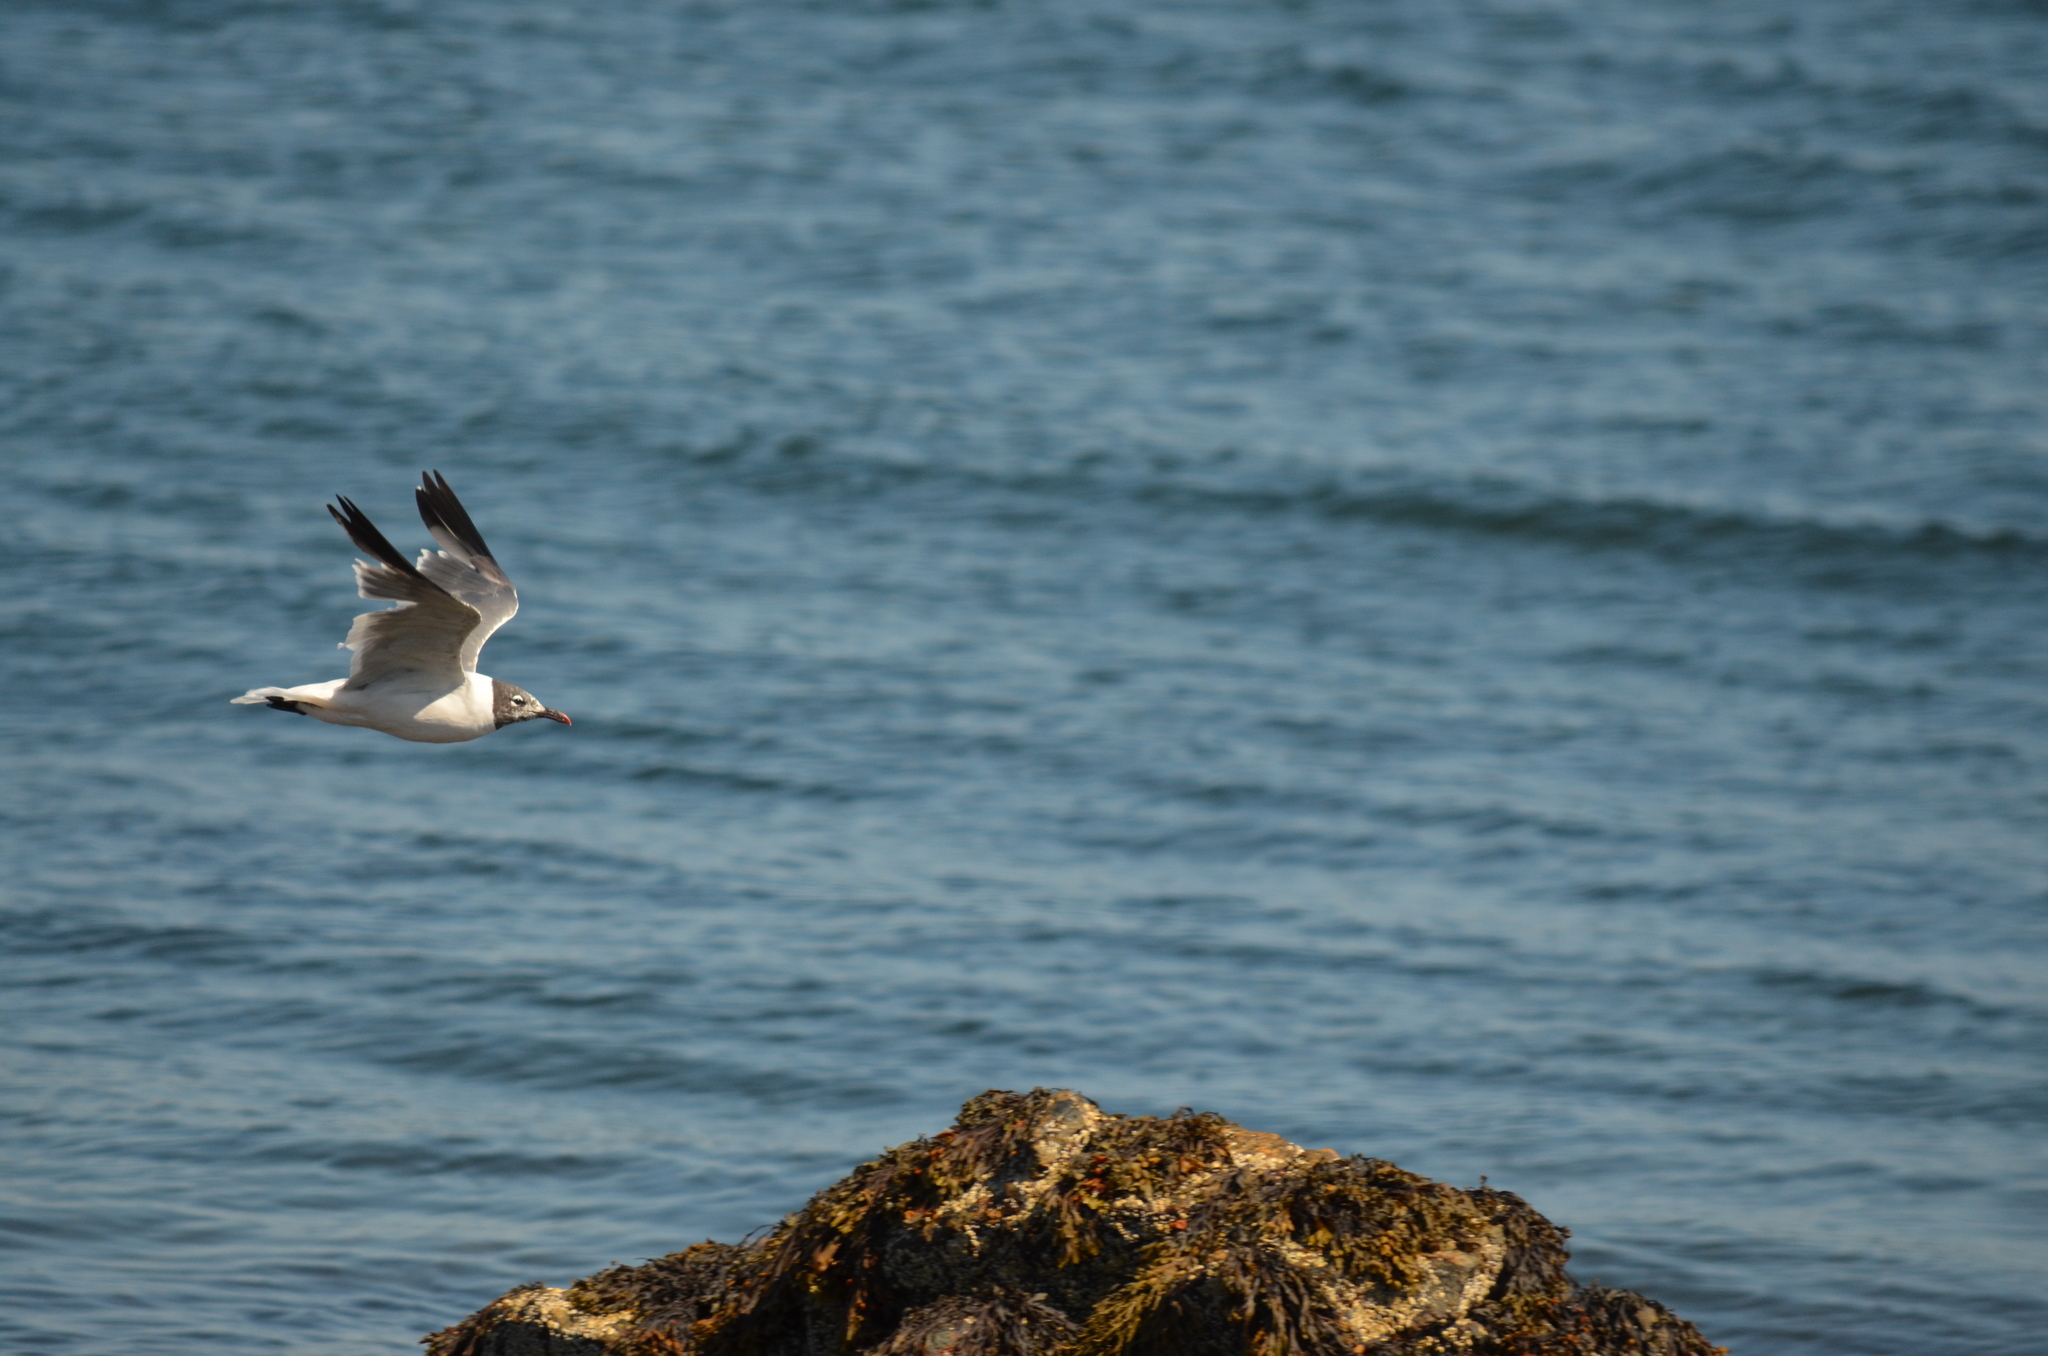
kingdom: Animalia
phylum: Chordata
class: Aves
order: Charadriiformes
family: Laridae
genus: Leucophaeus
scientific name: Leucophaeus atricilla
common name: Laughing gull
